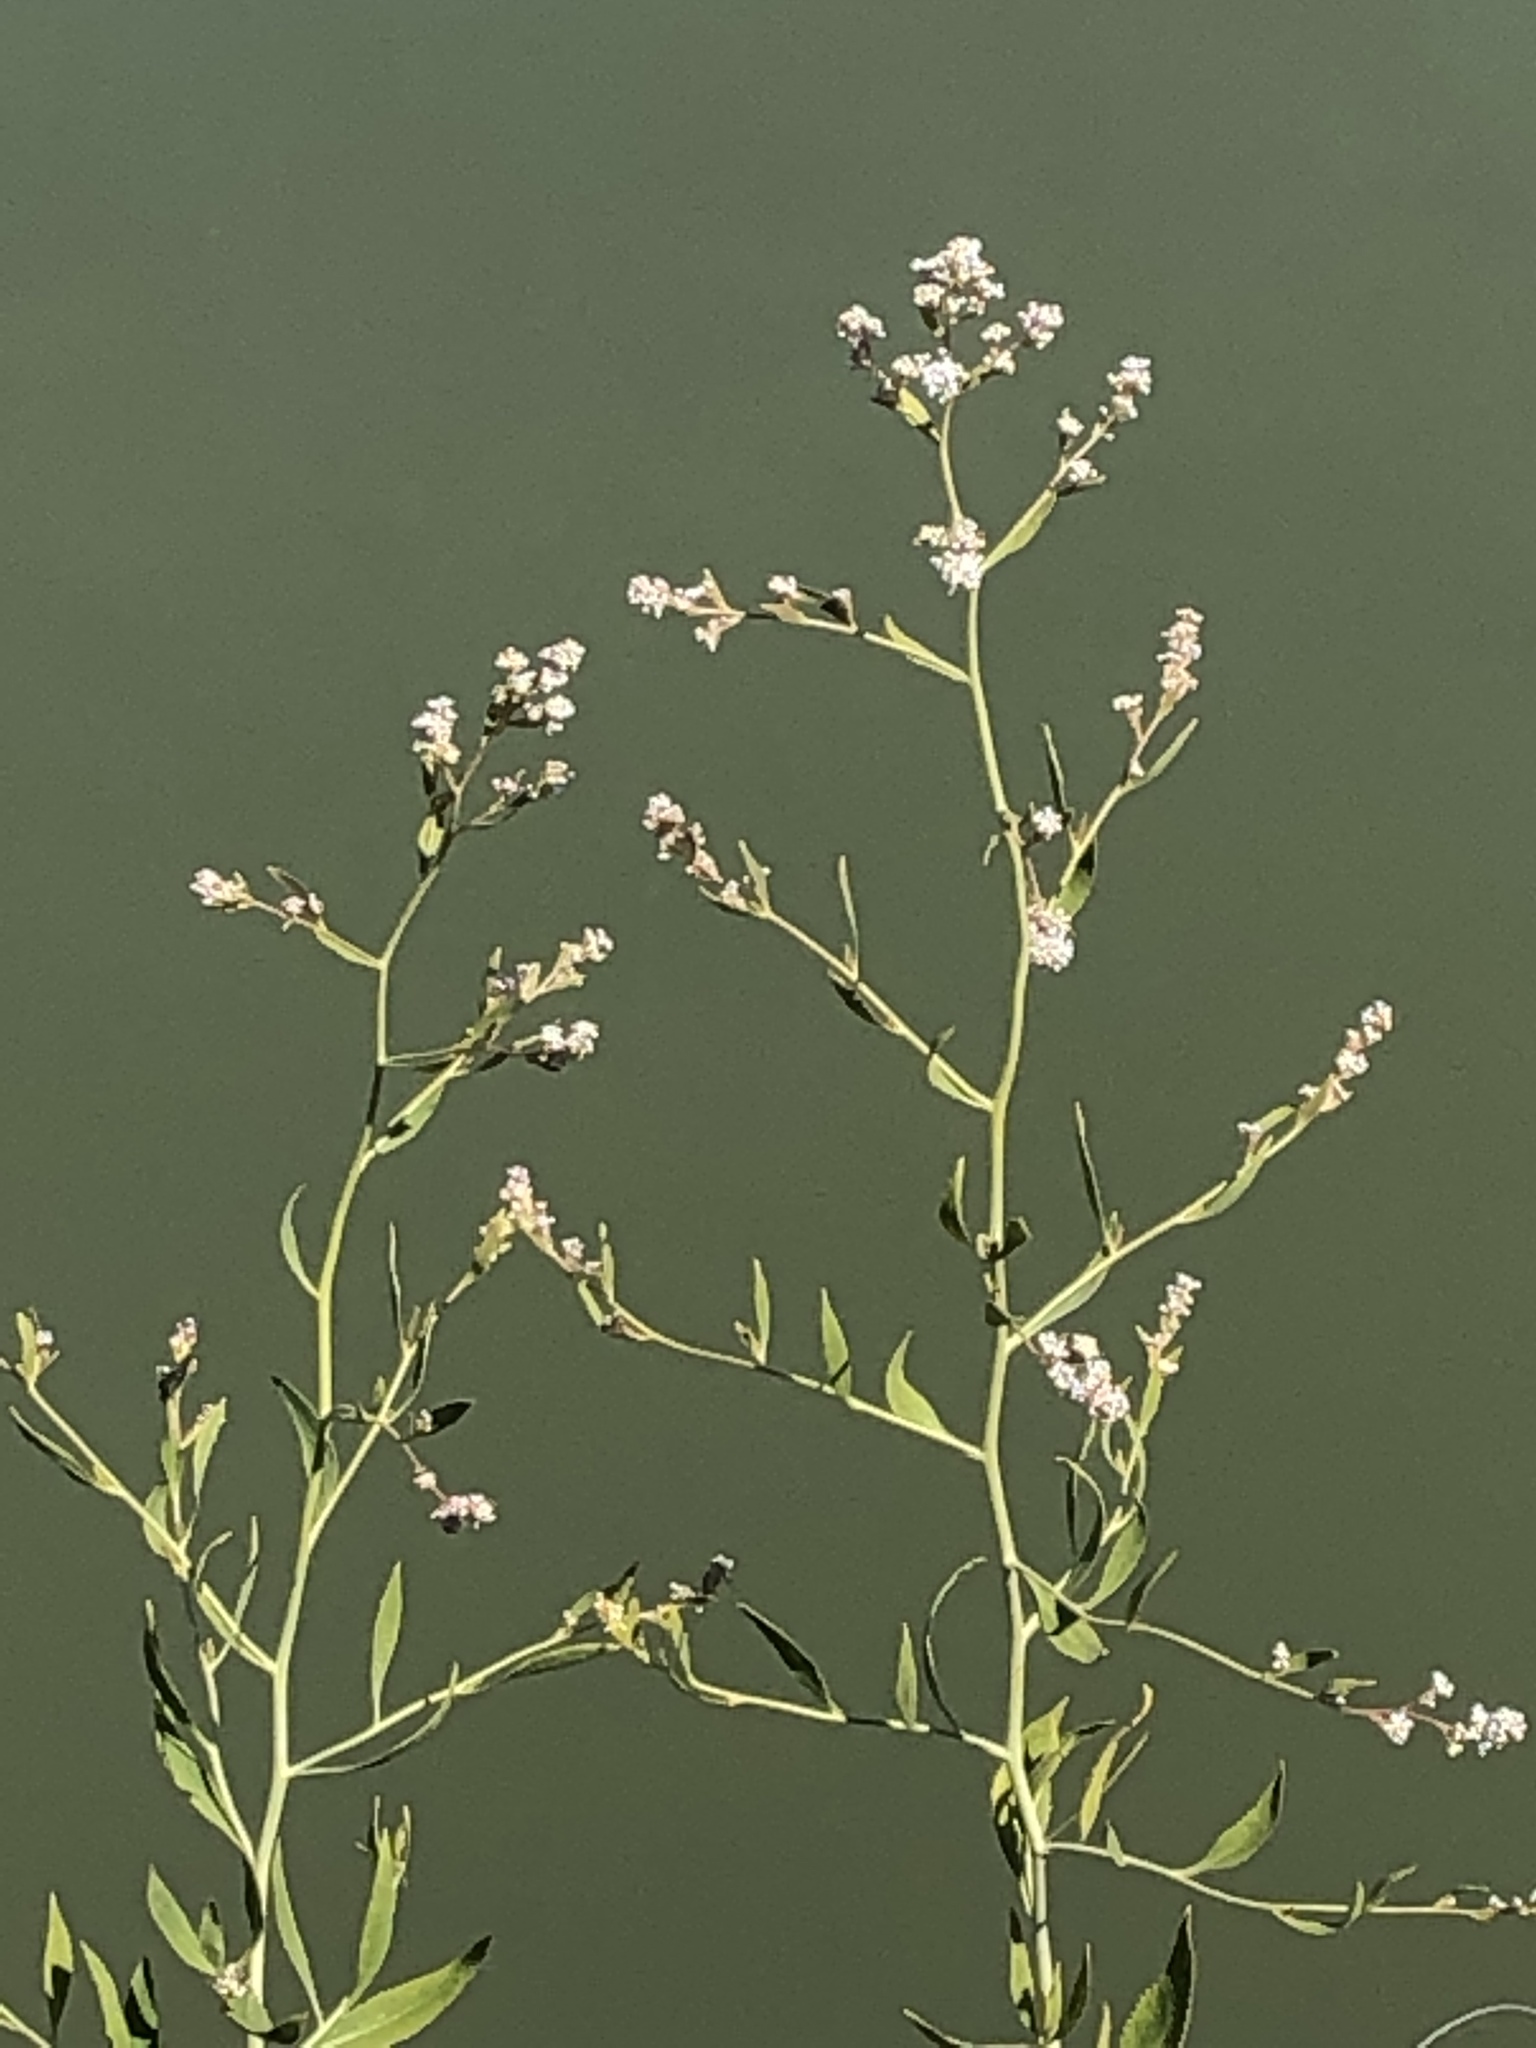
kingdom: Plantae
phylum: Tracheophyta
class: Magnoliopsida
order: Brassicales
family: Brassicaceae
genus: Lepidium
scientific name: Lepidium latifolium
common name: Dittander
